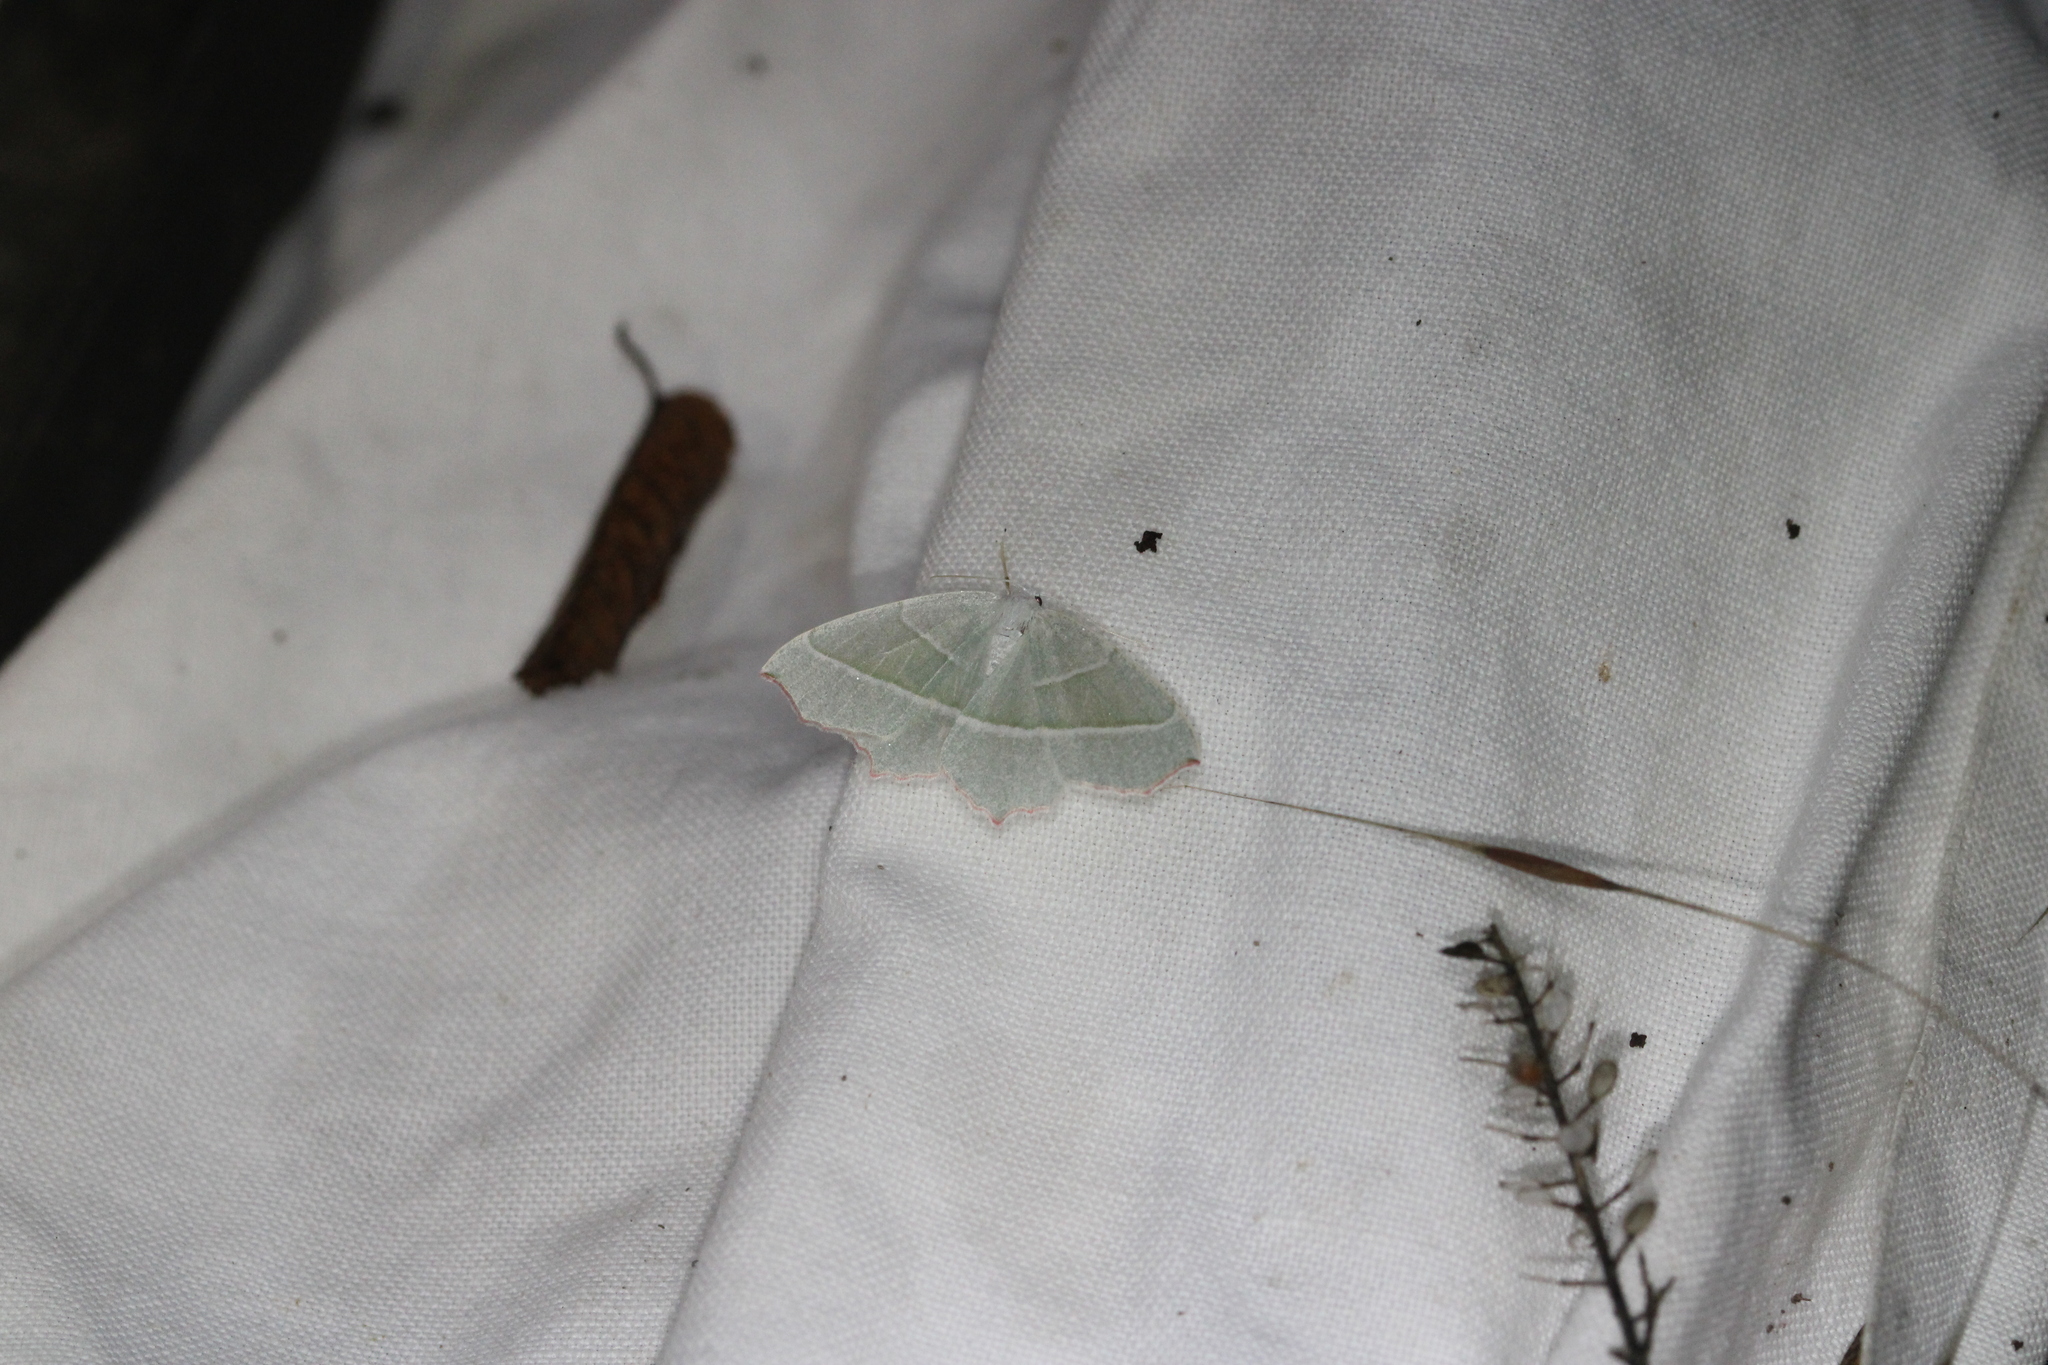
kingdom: Animalia
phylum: Arthropoda
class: Insecta
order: Lepidoptera
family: Geometridae
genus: Campaea
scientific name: Campaea margaritaria
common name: Light emerald
